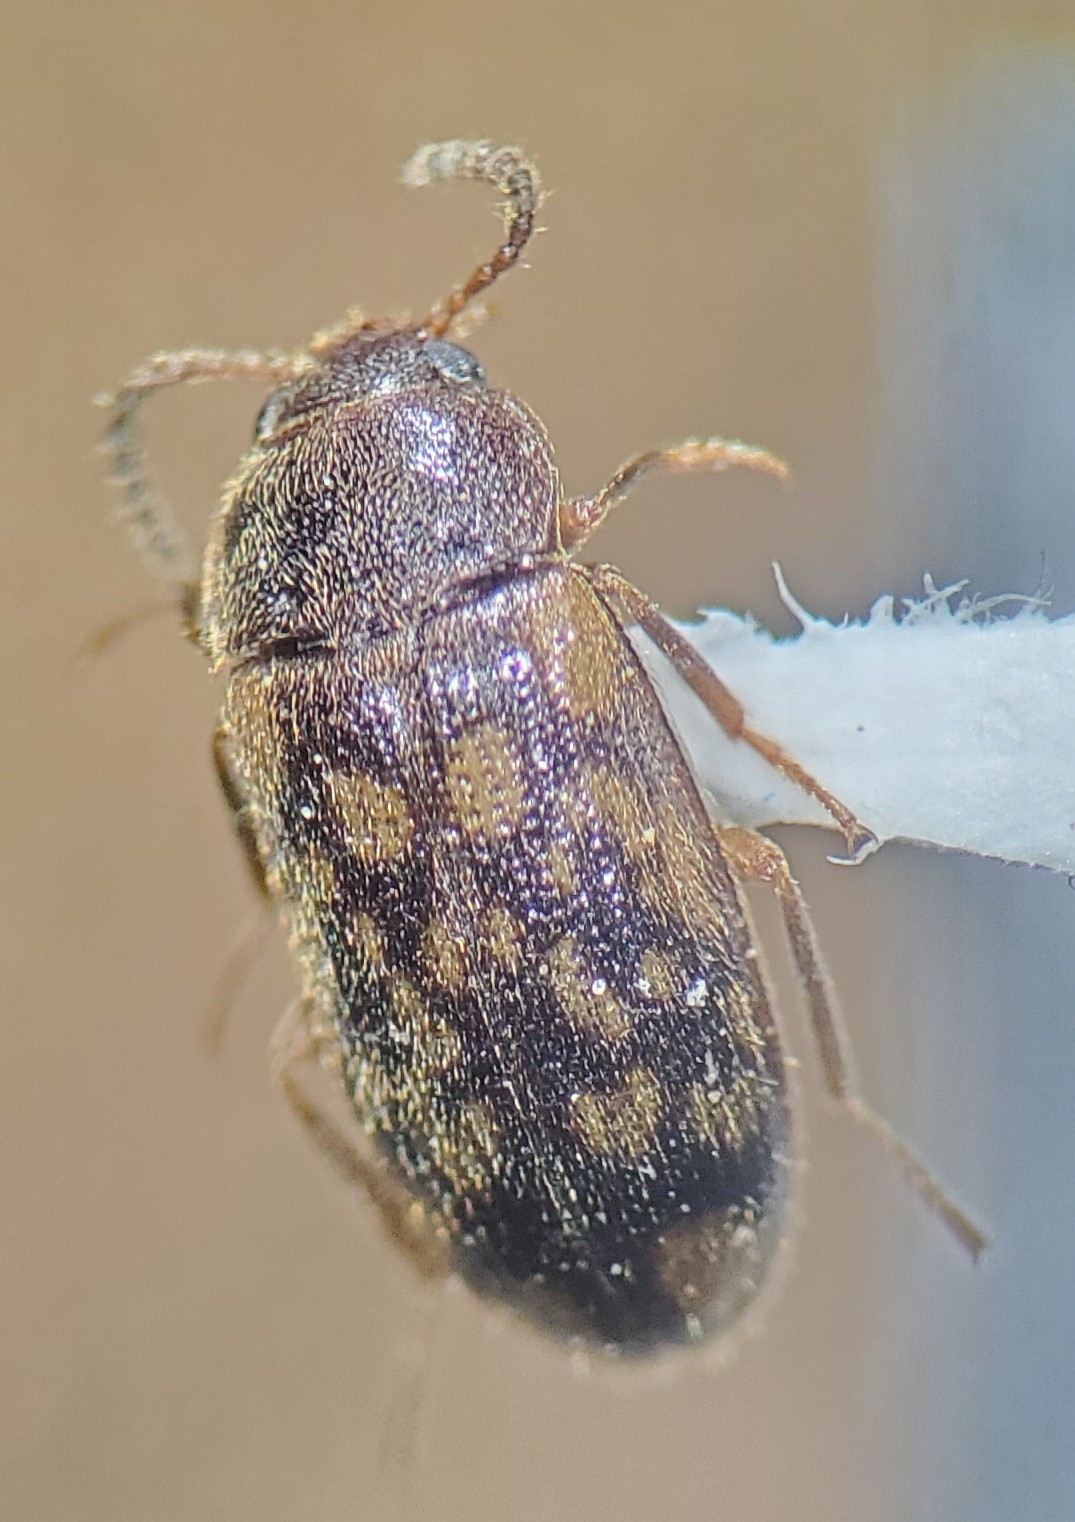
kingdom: Animalia
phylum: Arthropoda
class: Insecta
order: Coleoptera
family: Mycetophagidae
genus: Mycetophagus
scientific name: Mycetophagus pluripunctatus
